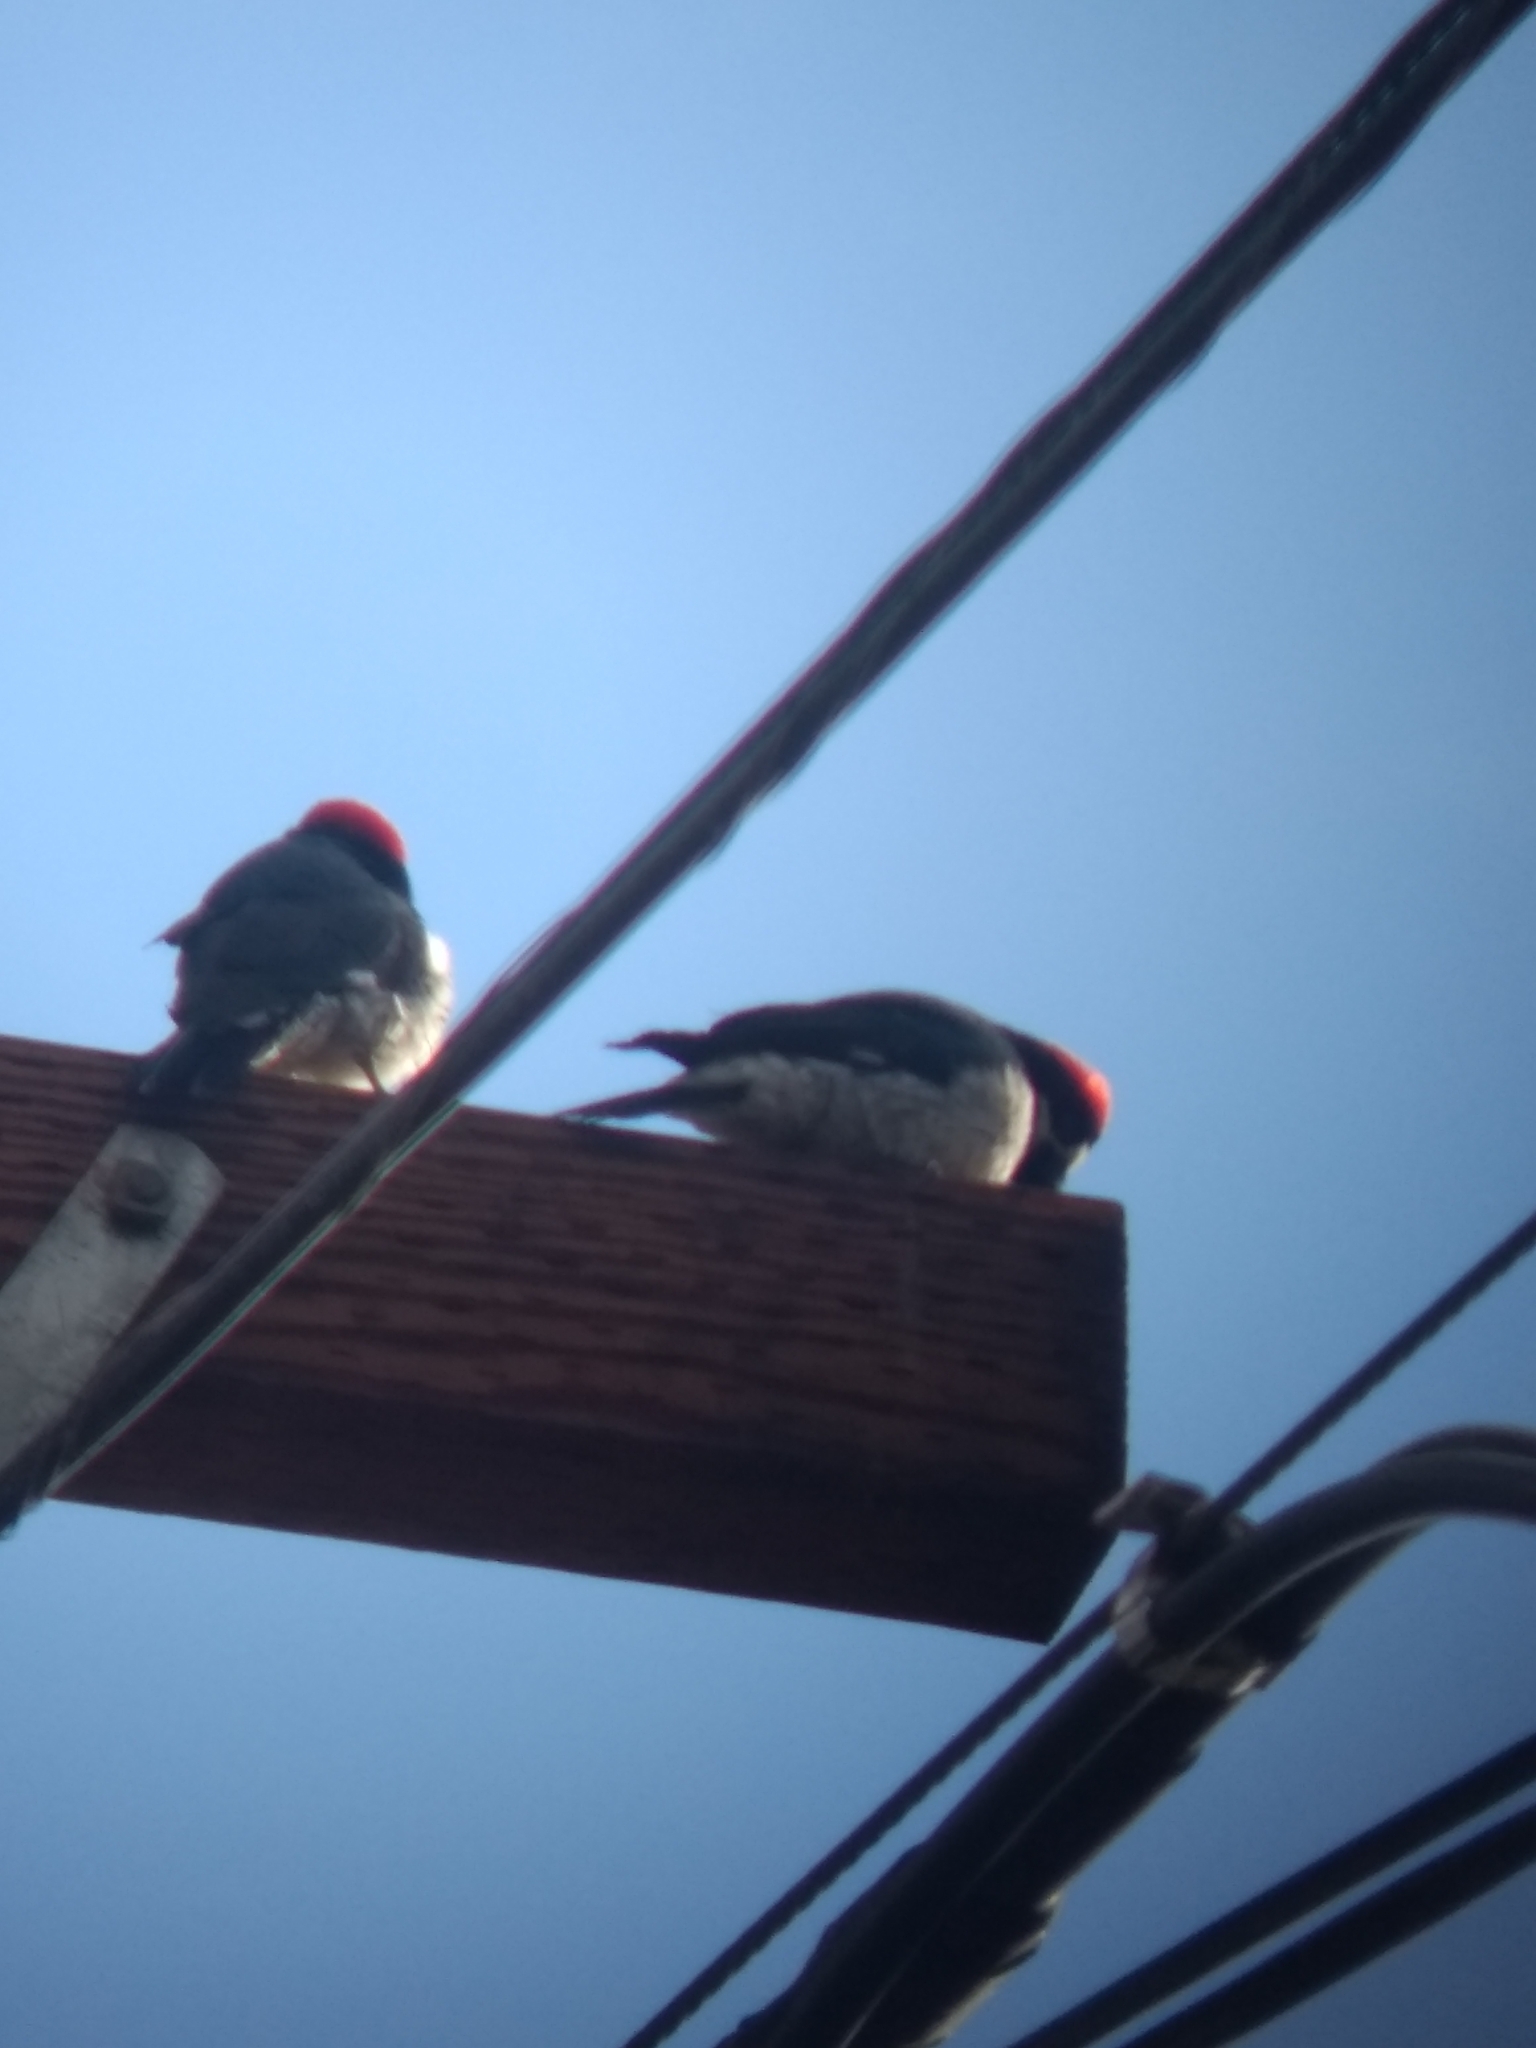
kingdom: Animalia
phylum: Chordata
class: Aves
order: Piciformes
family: Picidae
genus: Melanerpes
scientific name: Melanerpes formicivorus
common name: Acorn woodpecker
